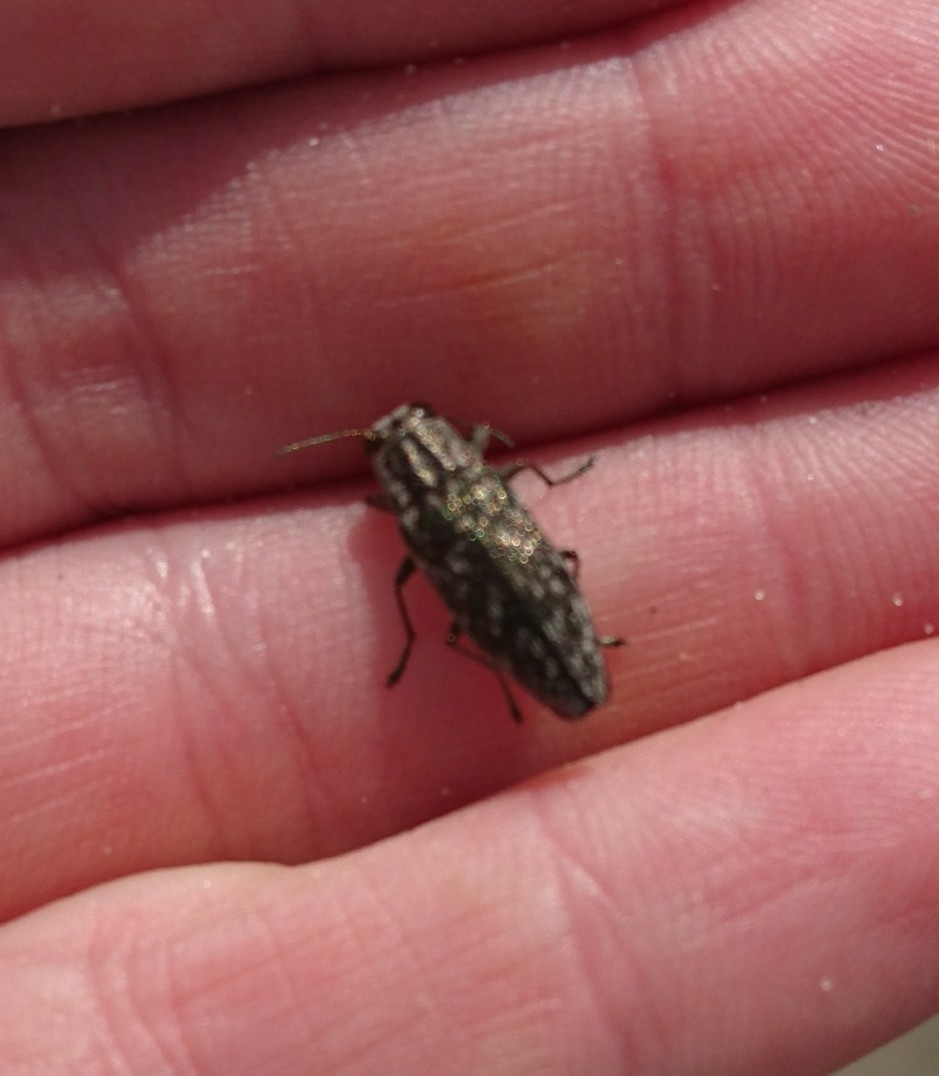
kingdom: Animalia
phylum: Arthropoda
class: Insecta
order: Coleoptera
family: Buprestidae
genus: Spectralia
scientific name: Spectralia gracilipes
